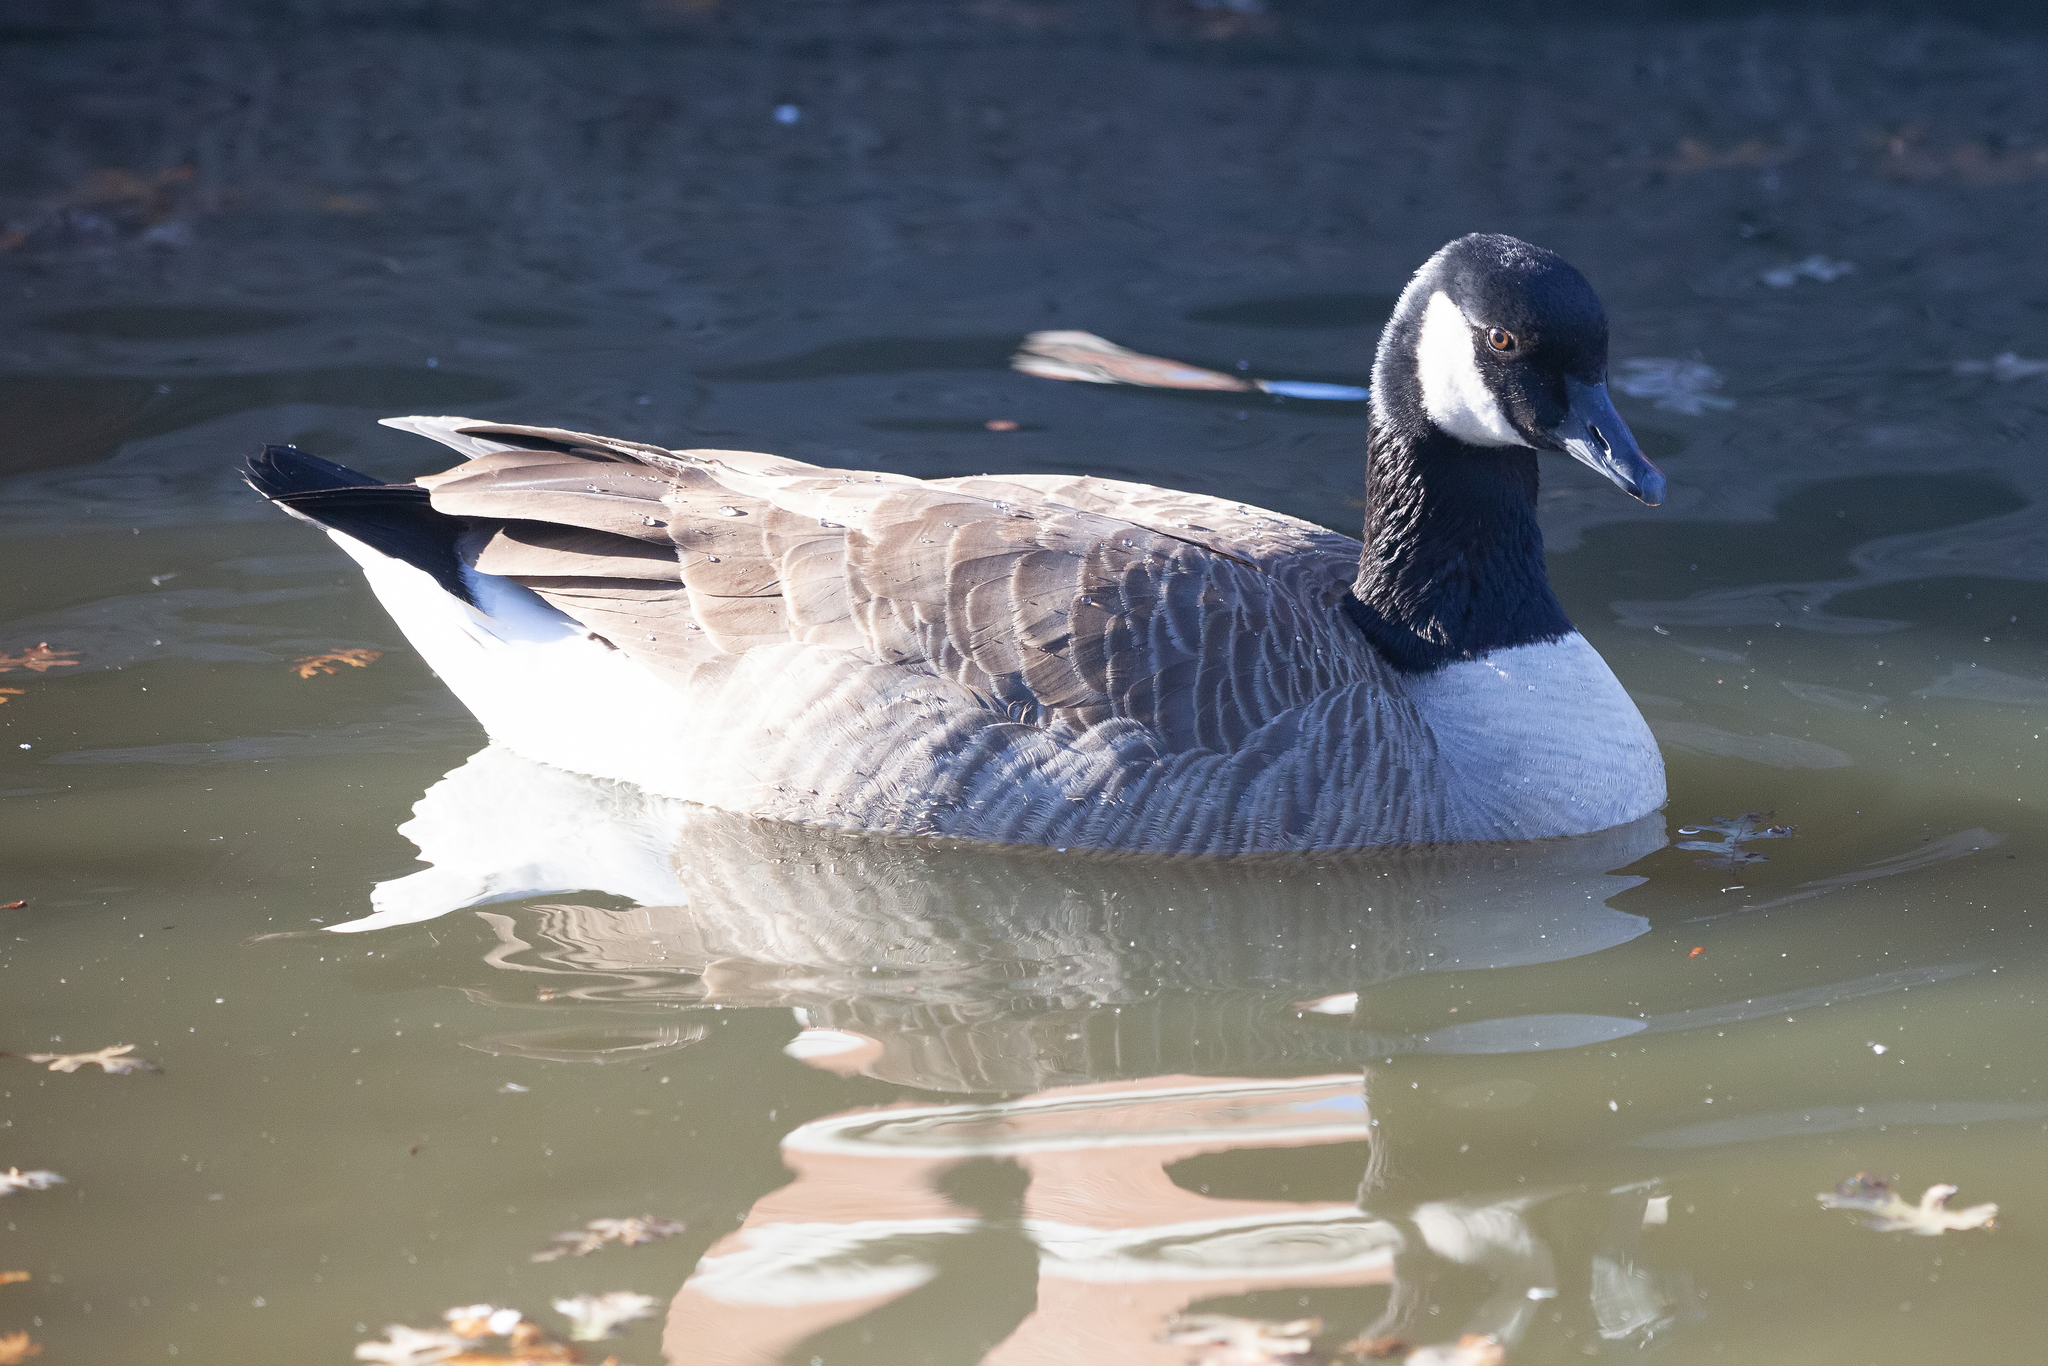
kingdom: Animalia
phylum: Chordata
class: Aves
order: Anseriformes
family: Anatidae
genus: Branta
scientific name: Branta hutchinsii
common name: Cackling goose
